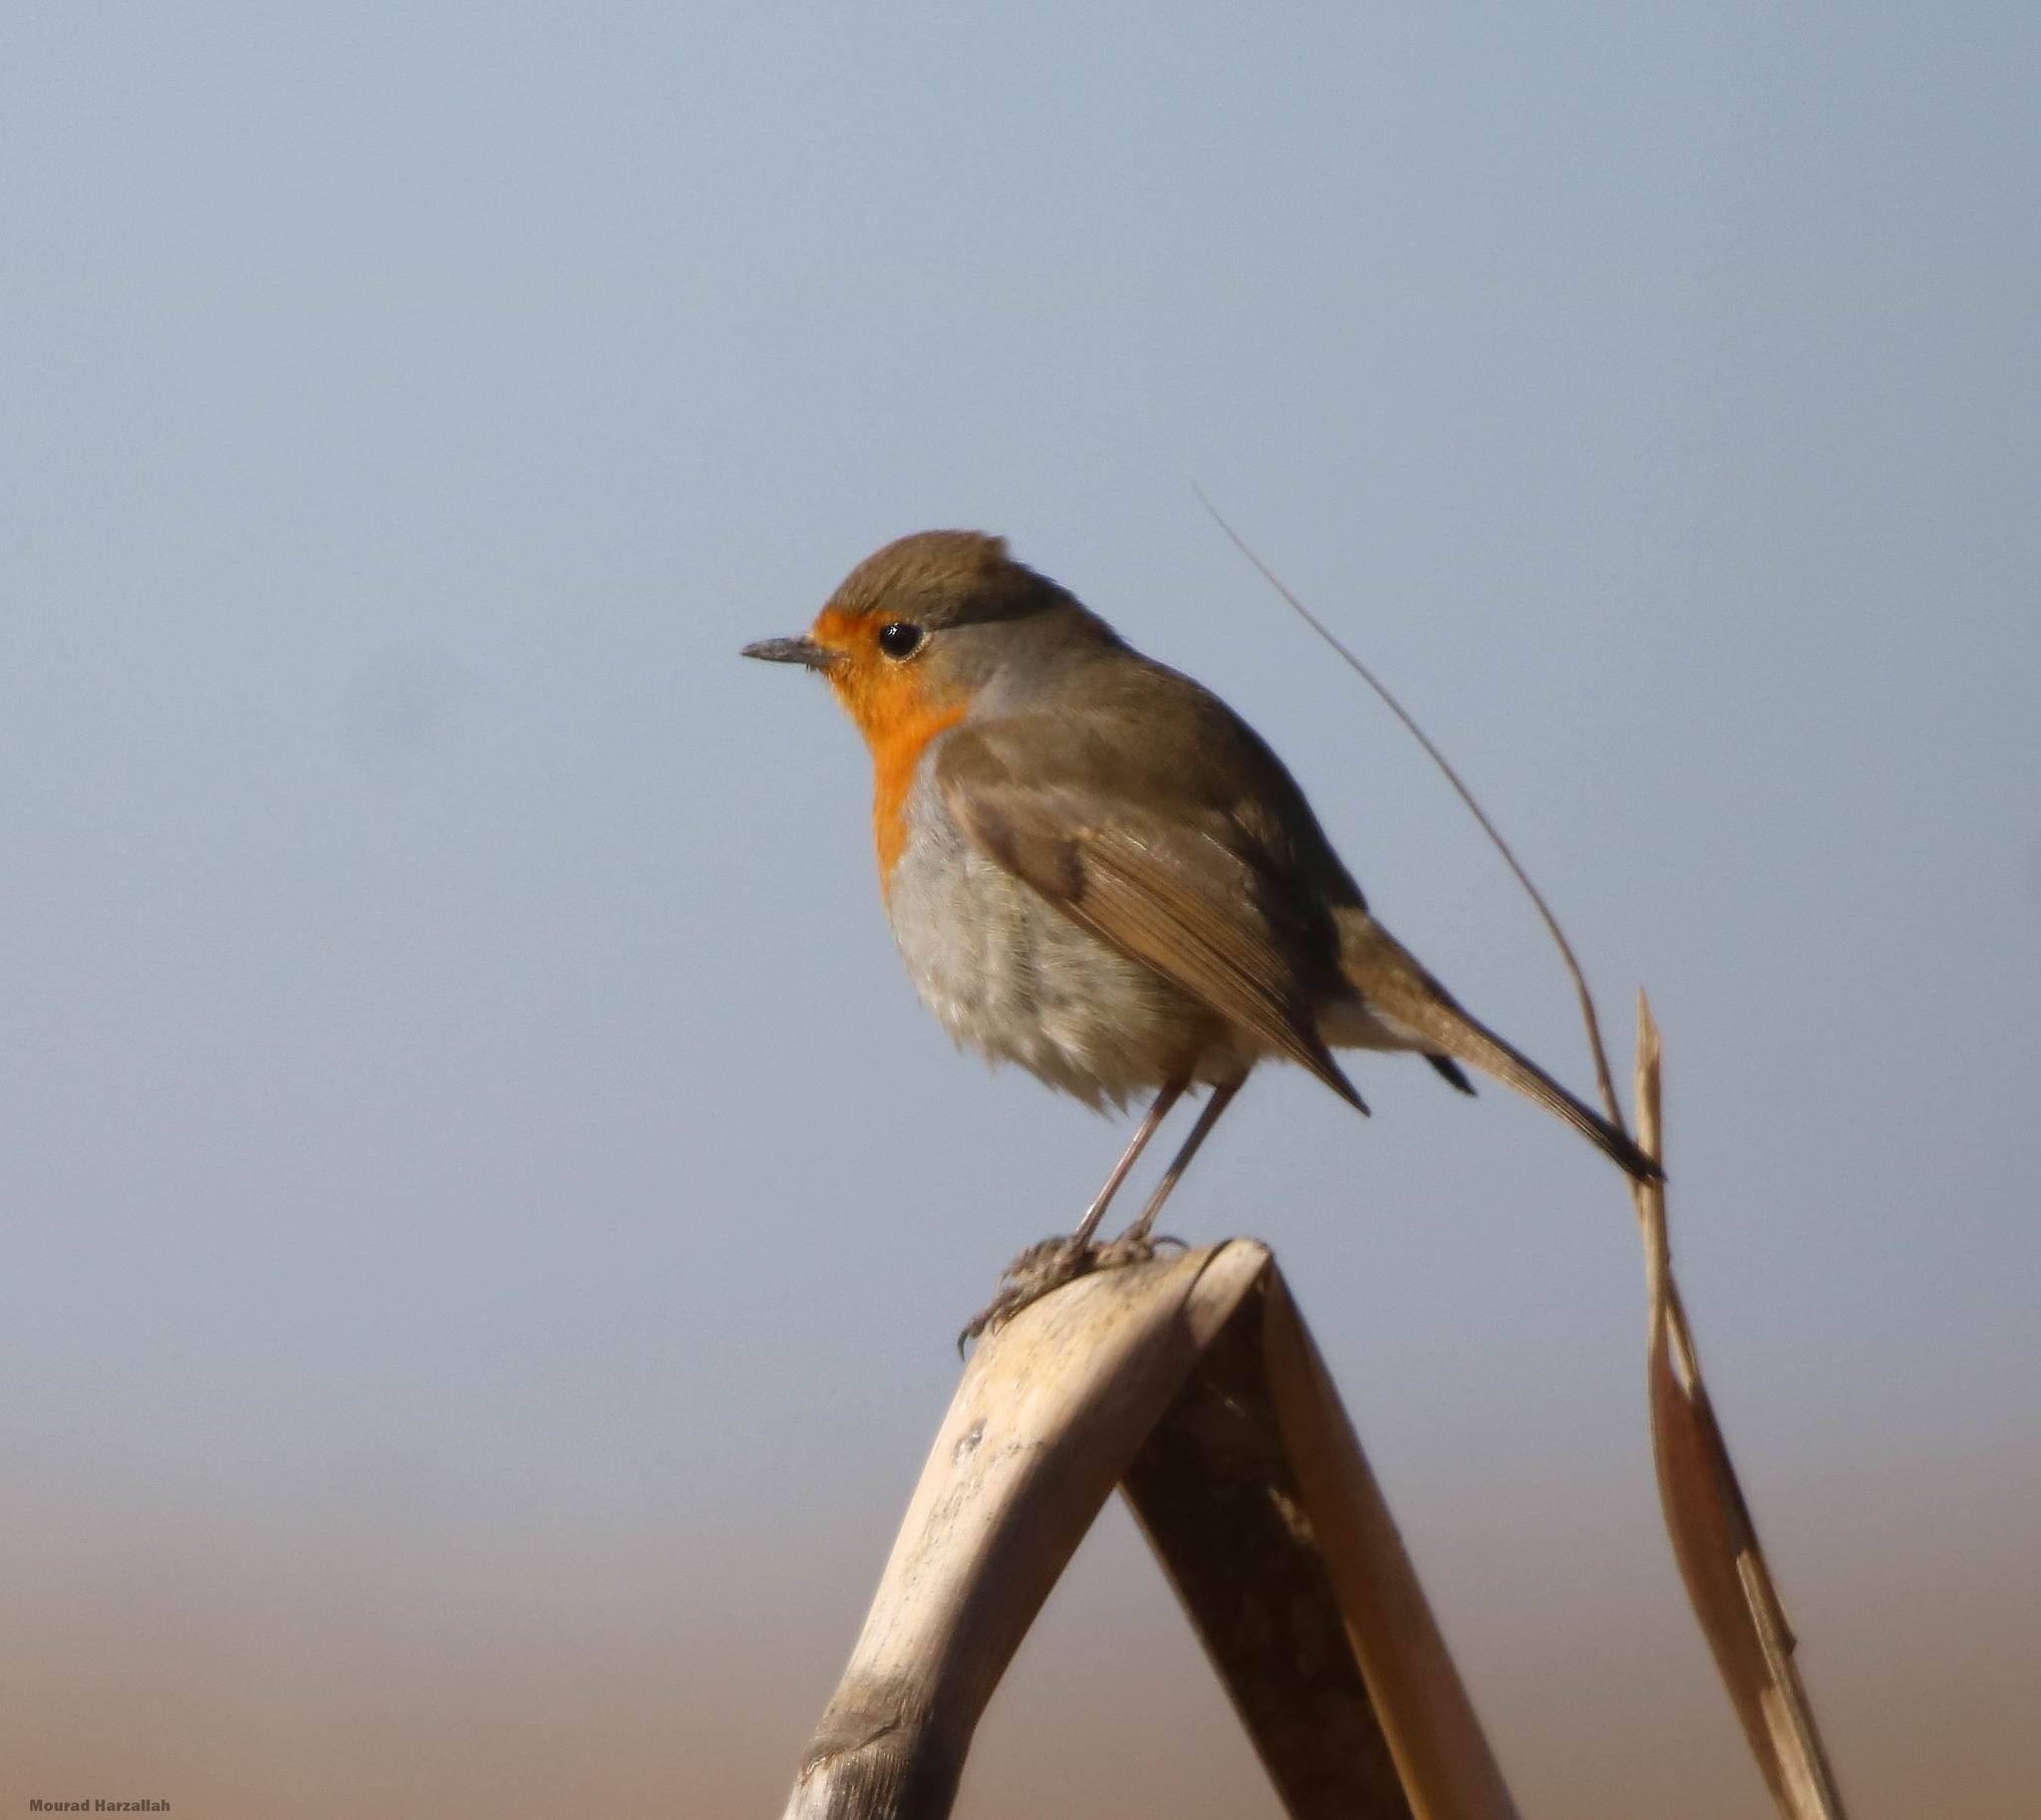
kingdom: Animalia
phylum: Chordata
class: Aves
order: Passeriformes
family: Muscicapidae
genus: Erithacus
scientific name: Erithacus rubecula
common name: European robin
